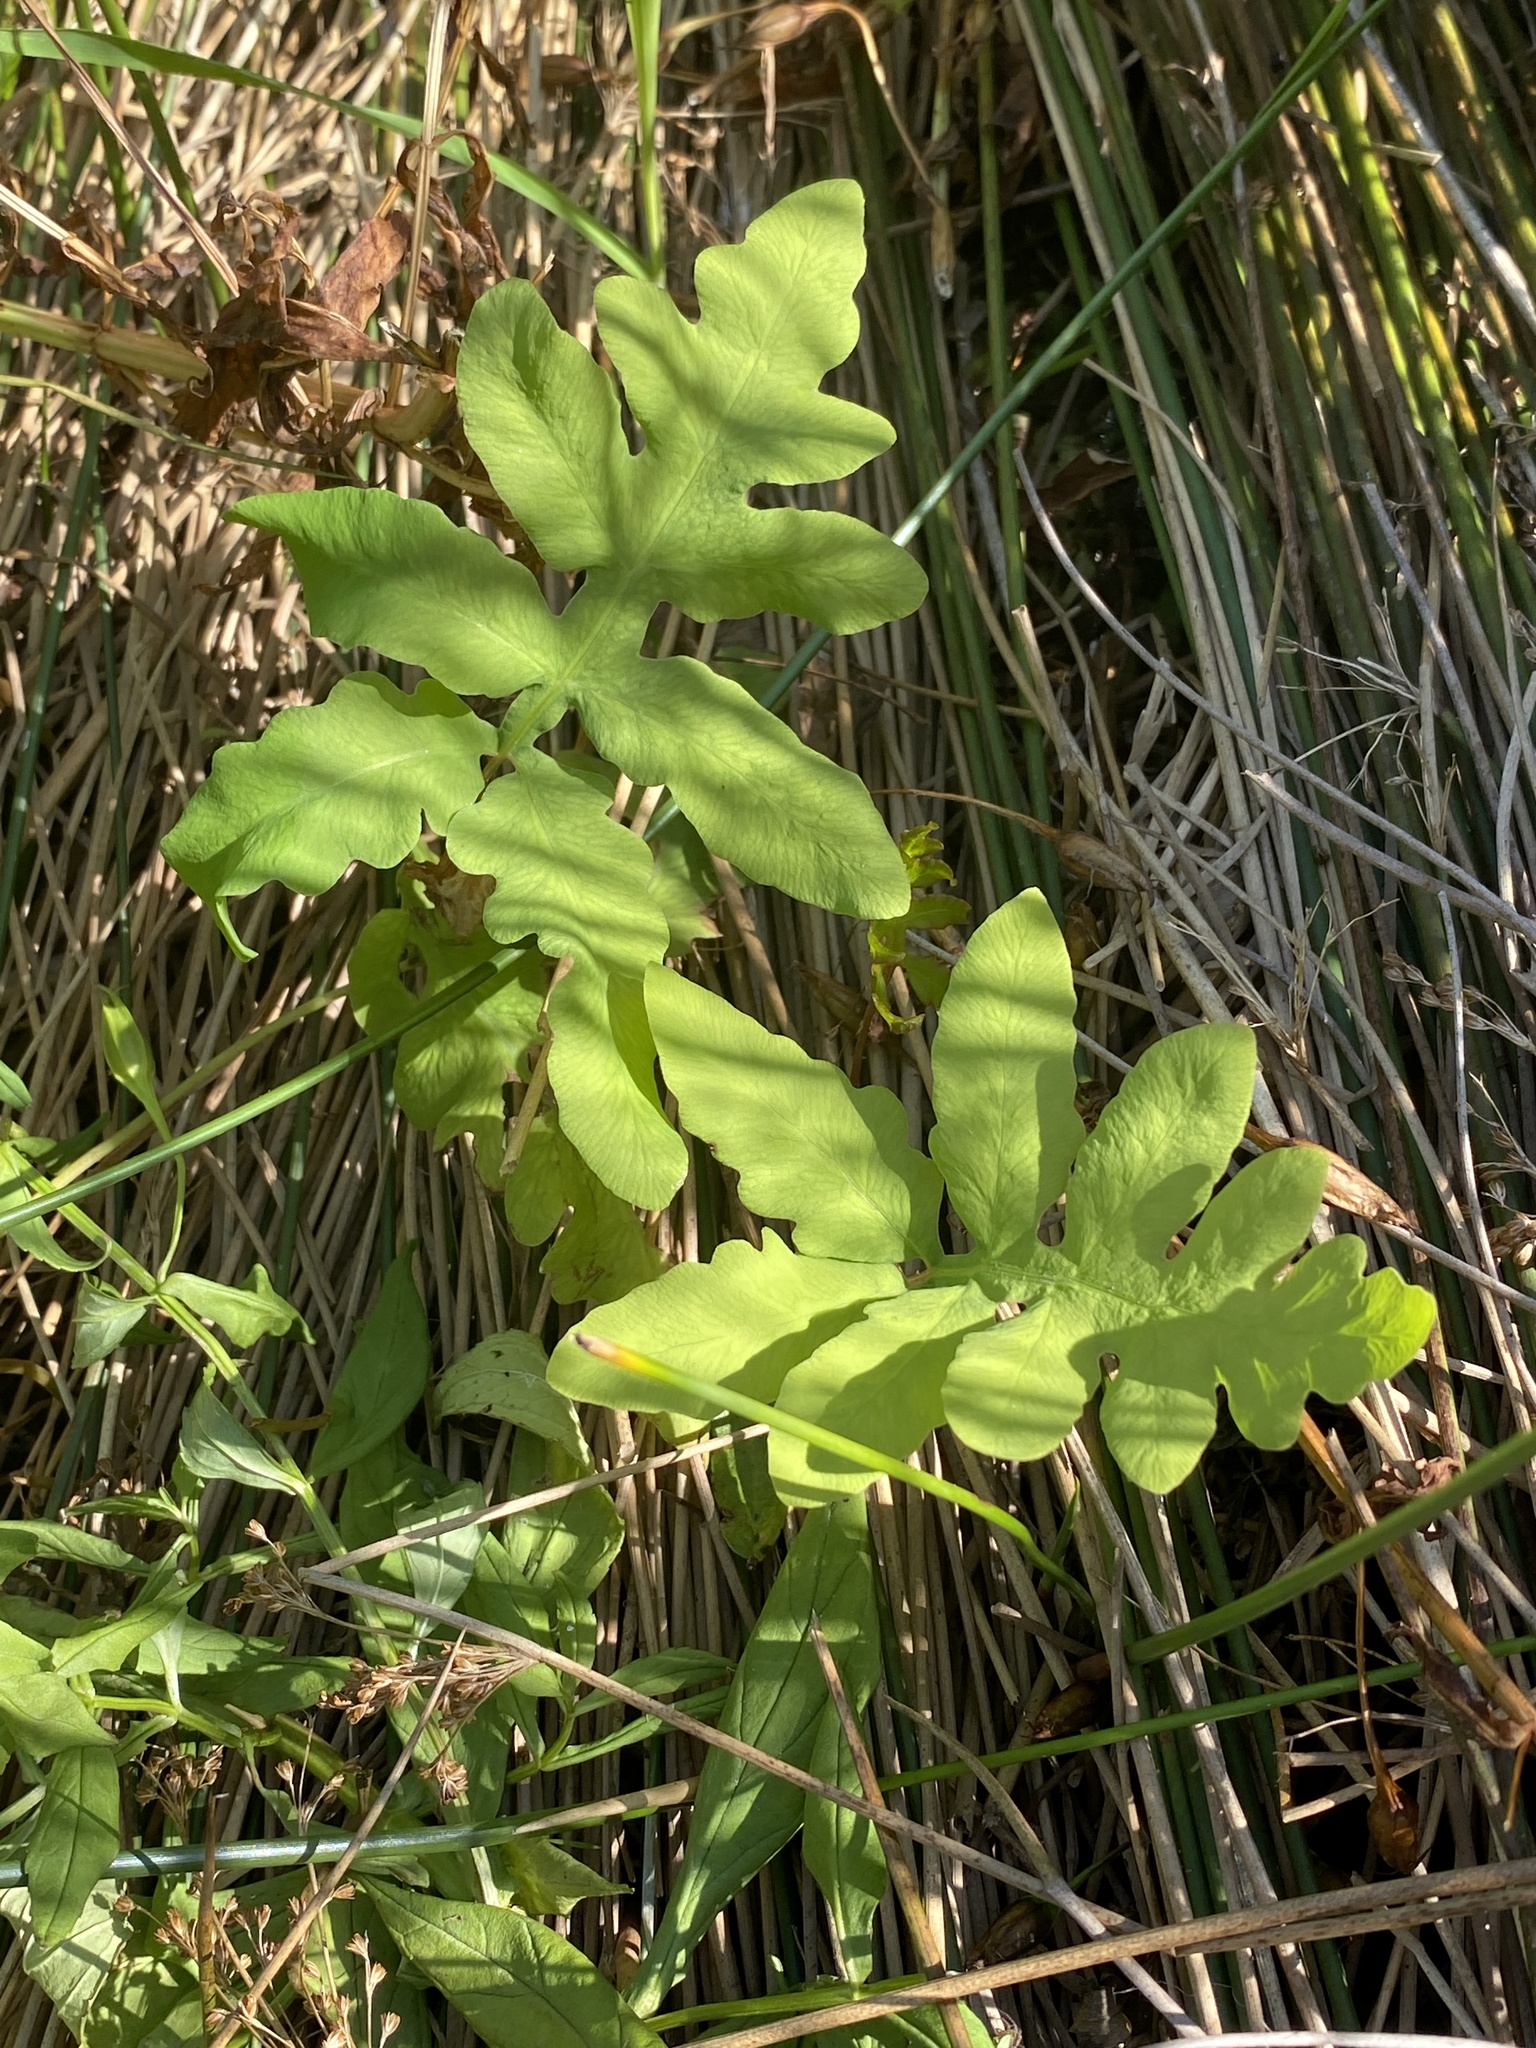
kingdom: Plantae
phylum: Tracheophyta
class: Polypodiopsida
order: Polypodiales
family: Onocleaceae
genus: Onoclea
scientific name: Onoclea sensibilis
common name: Sensitive fern
